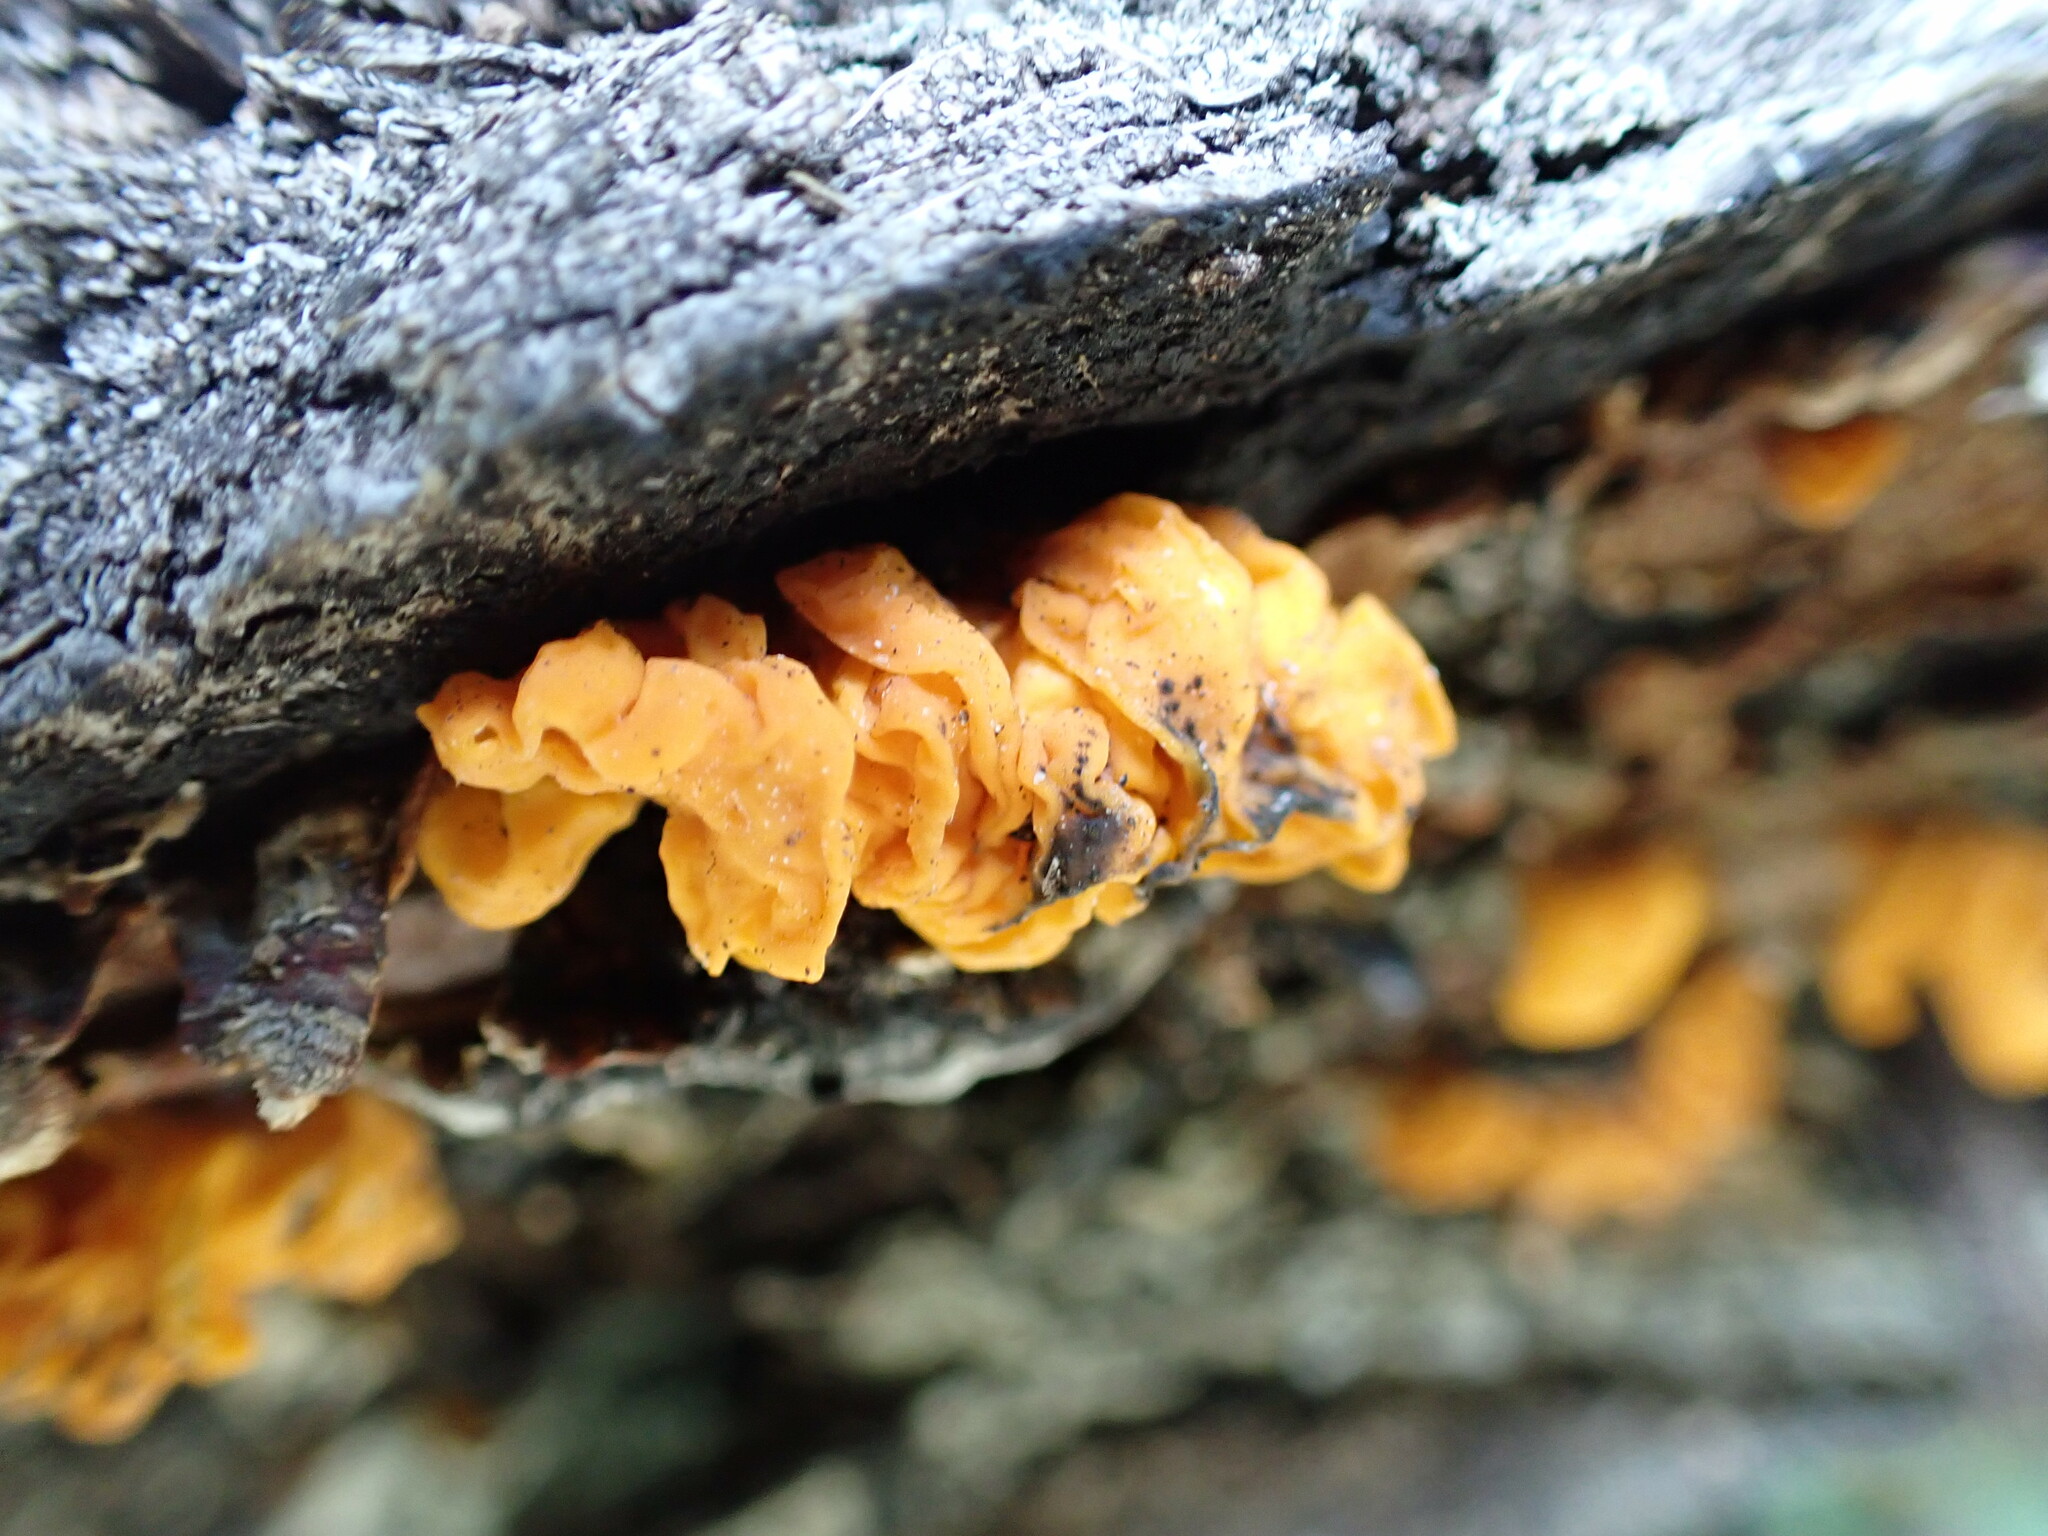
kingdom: Fungi
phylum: Basidiomycota
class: Tremellomycetes
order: Tremellales
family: Naemateliaceae
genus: Naematelia
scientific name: Naematelia aurantia
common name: Golden ear
